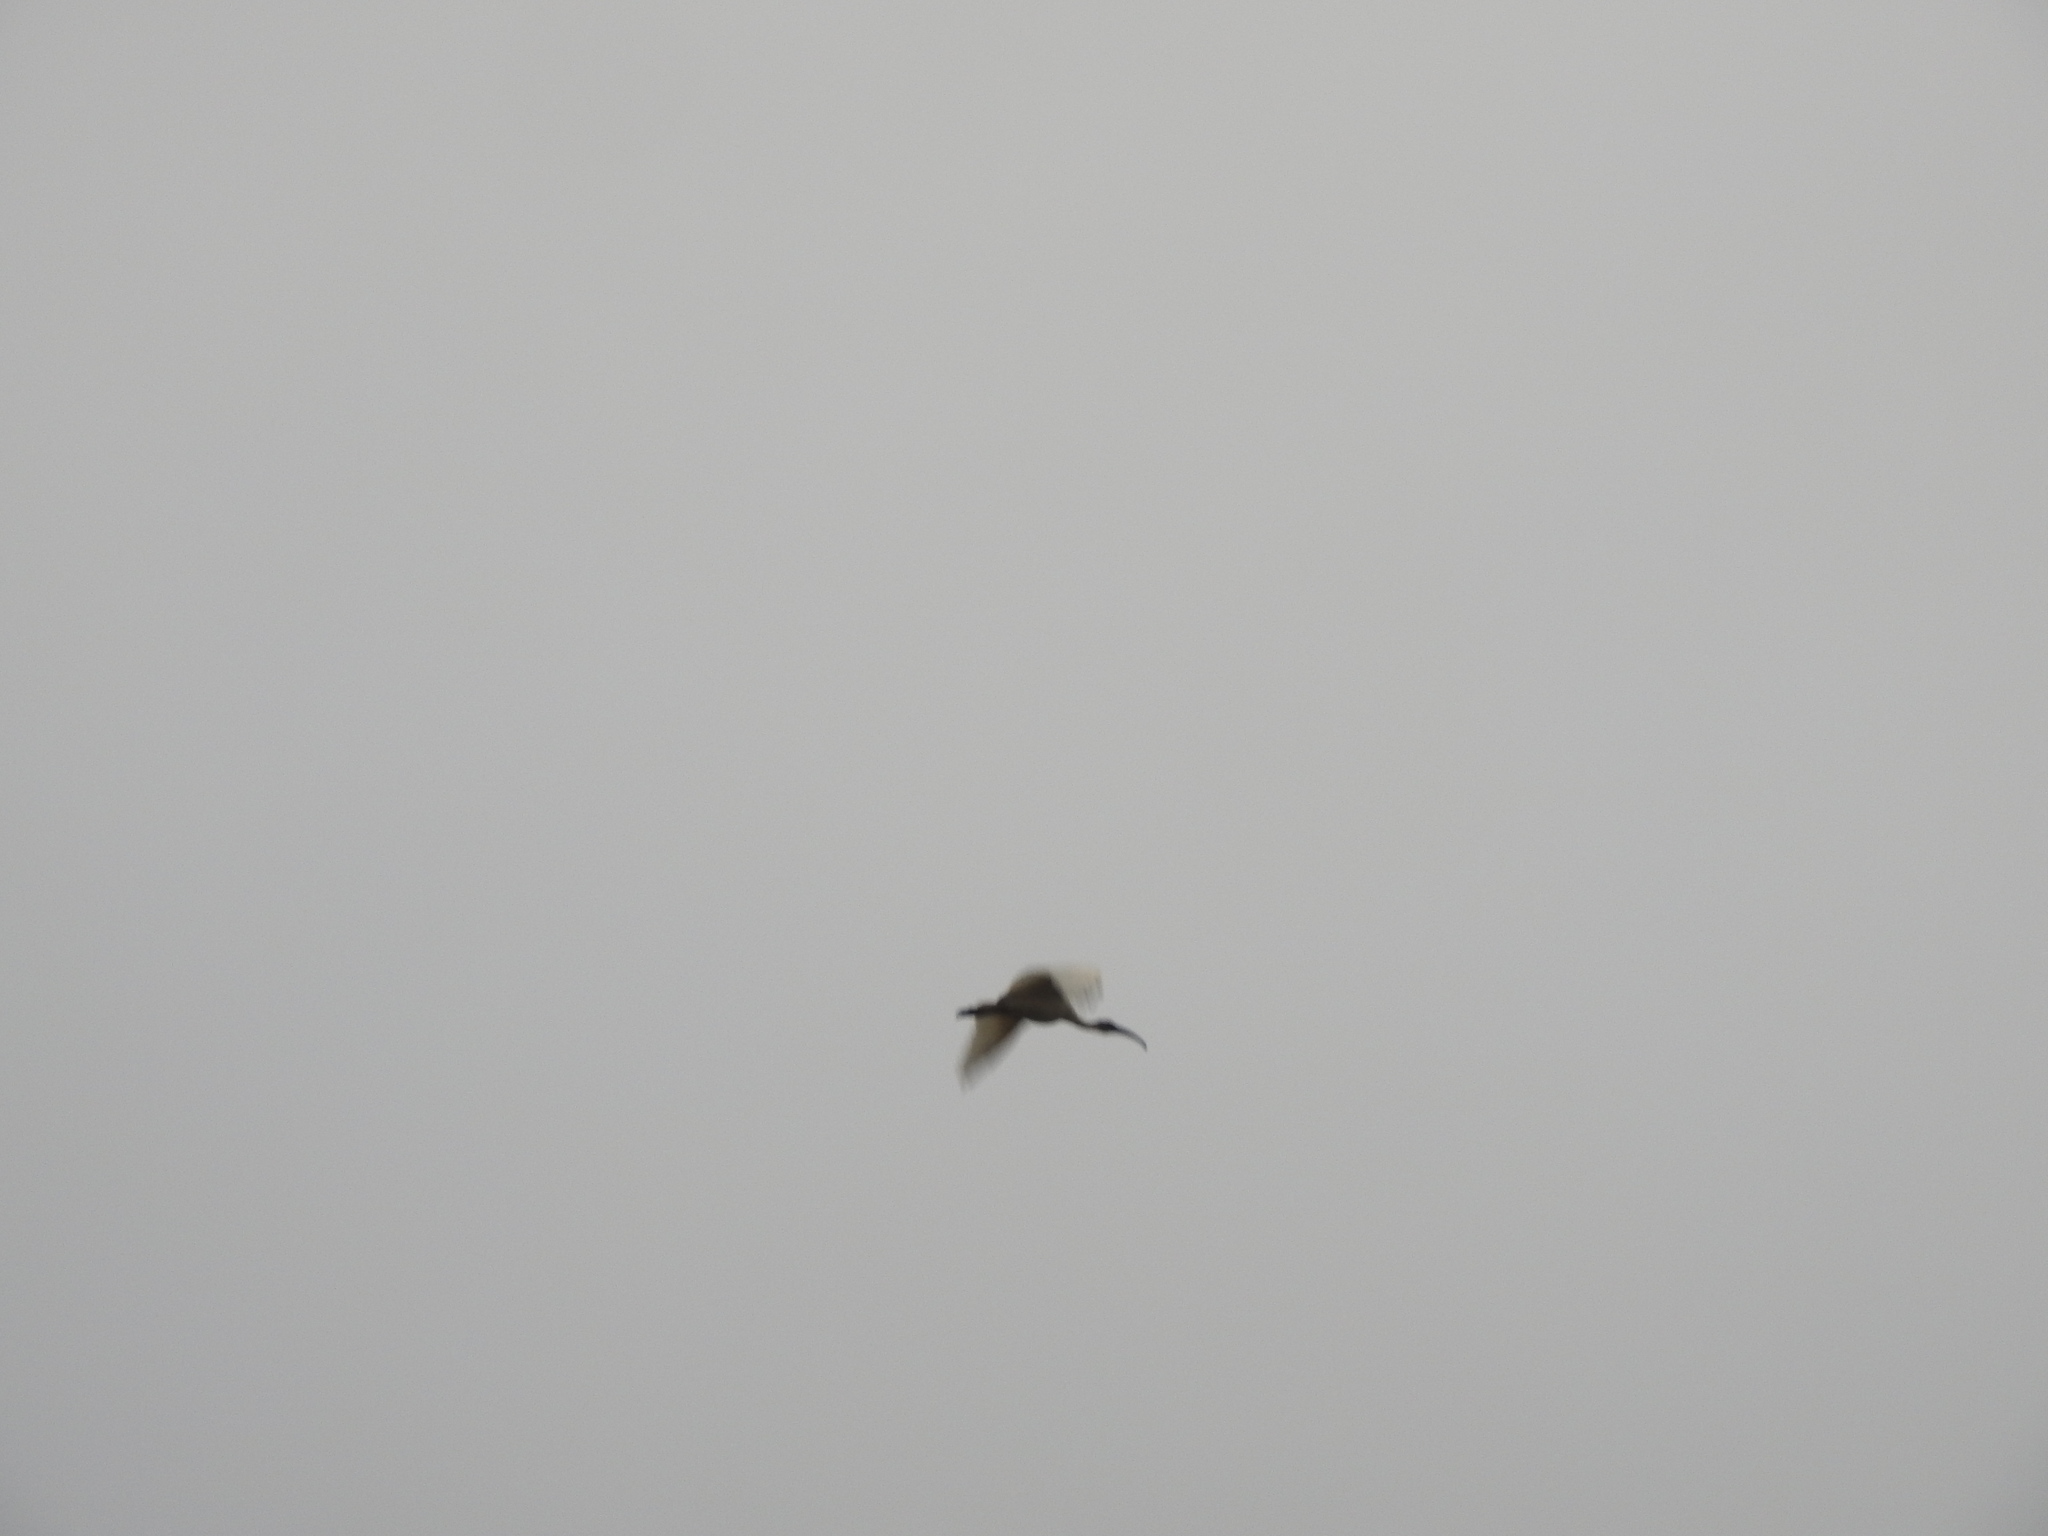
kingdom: Animalia
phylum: Chordata
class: Aves
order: Pelecaniformes
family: Threskiornithidae
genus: Threskiornis
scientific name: Threskiornis melanocephalus
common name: Black-headed ibis
